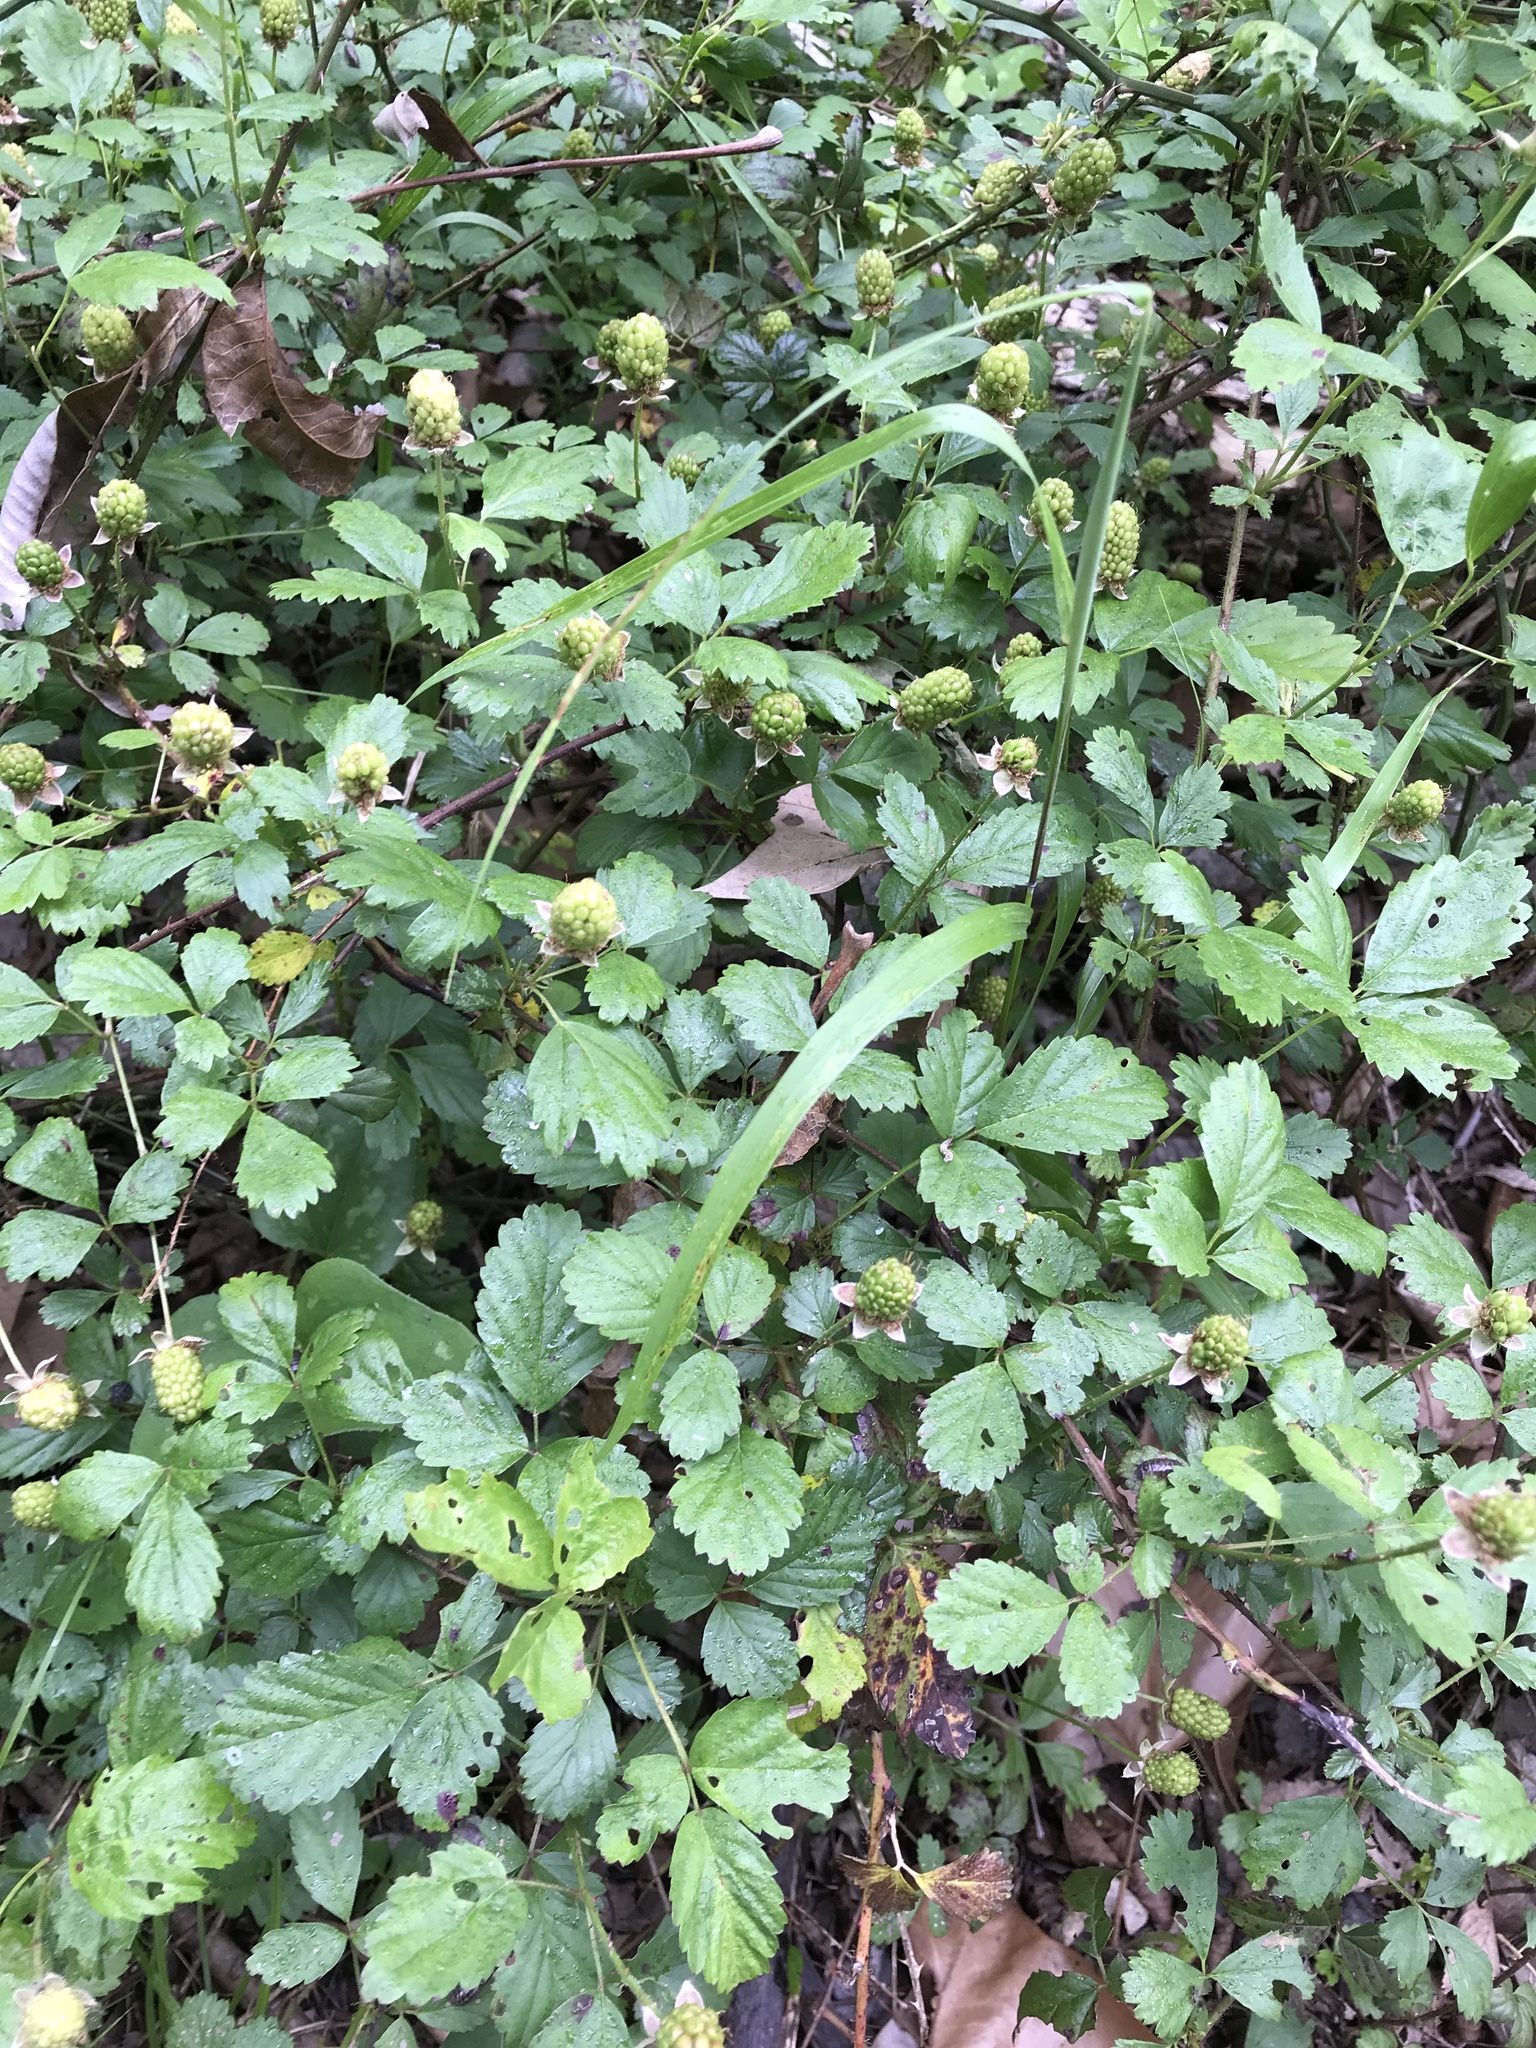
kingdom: Plantae
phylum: Tracheophyta
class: Magnoliopsida
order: Rosales
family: Rosaceae
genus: Rubus
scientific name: Rubus trivialis
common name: Southern dewberry
